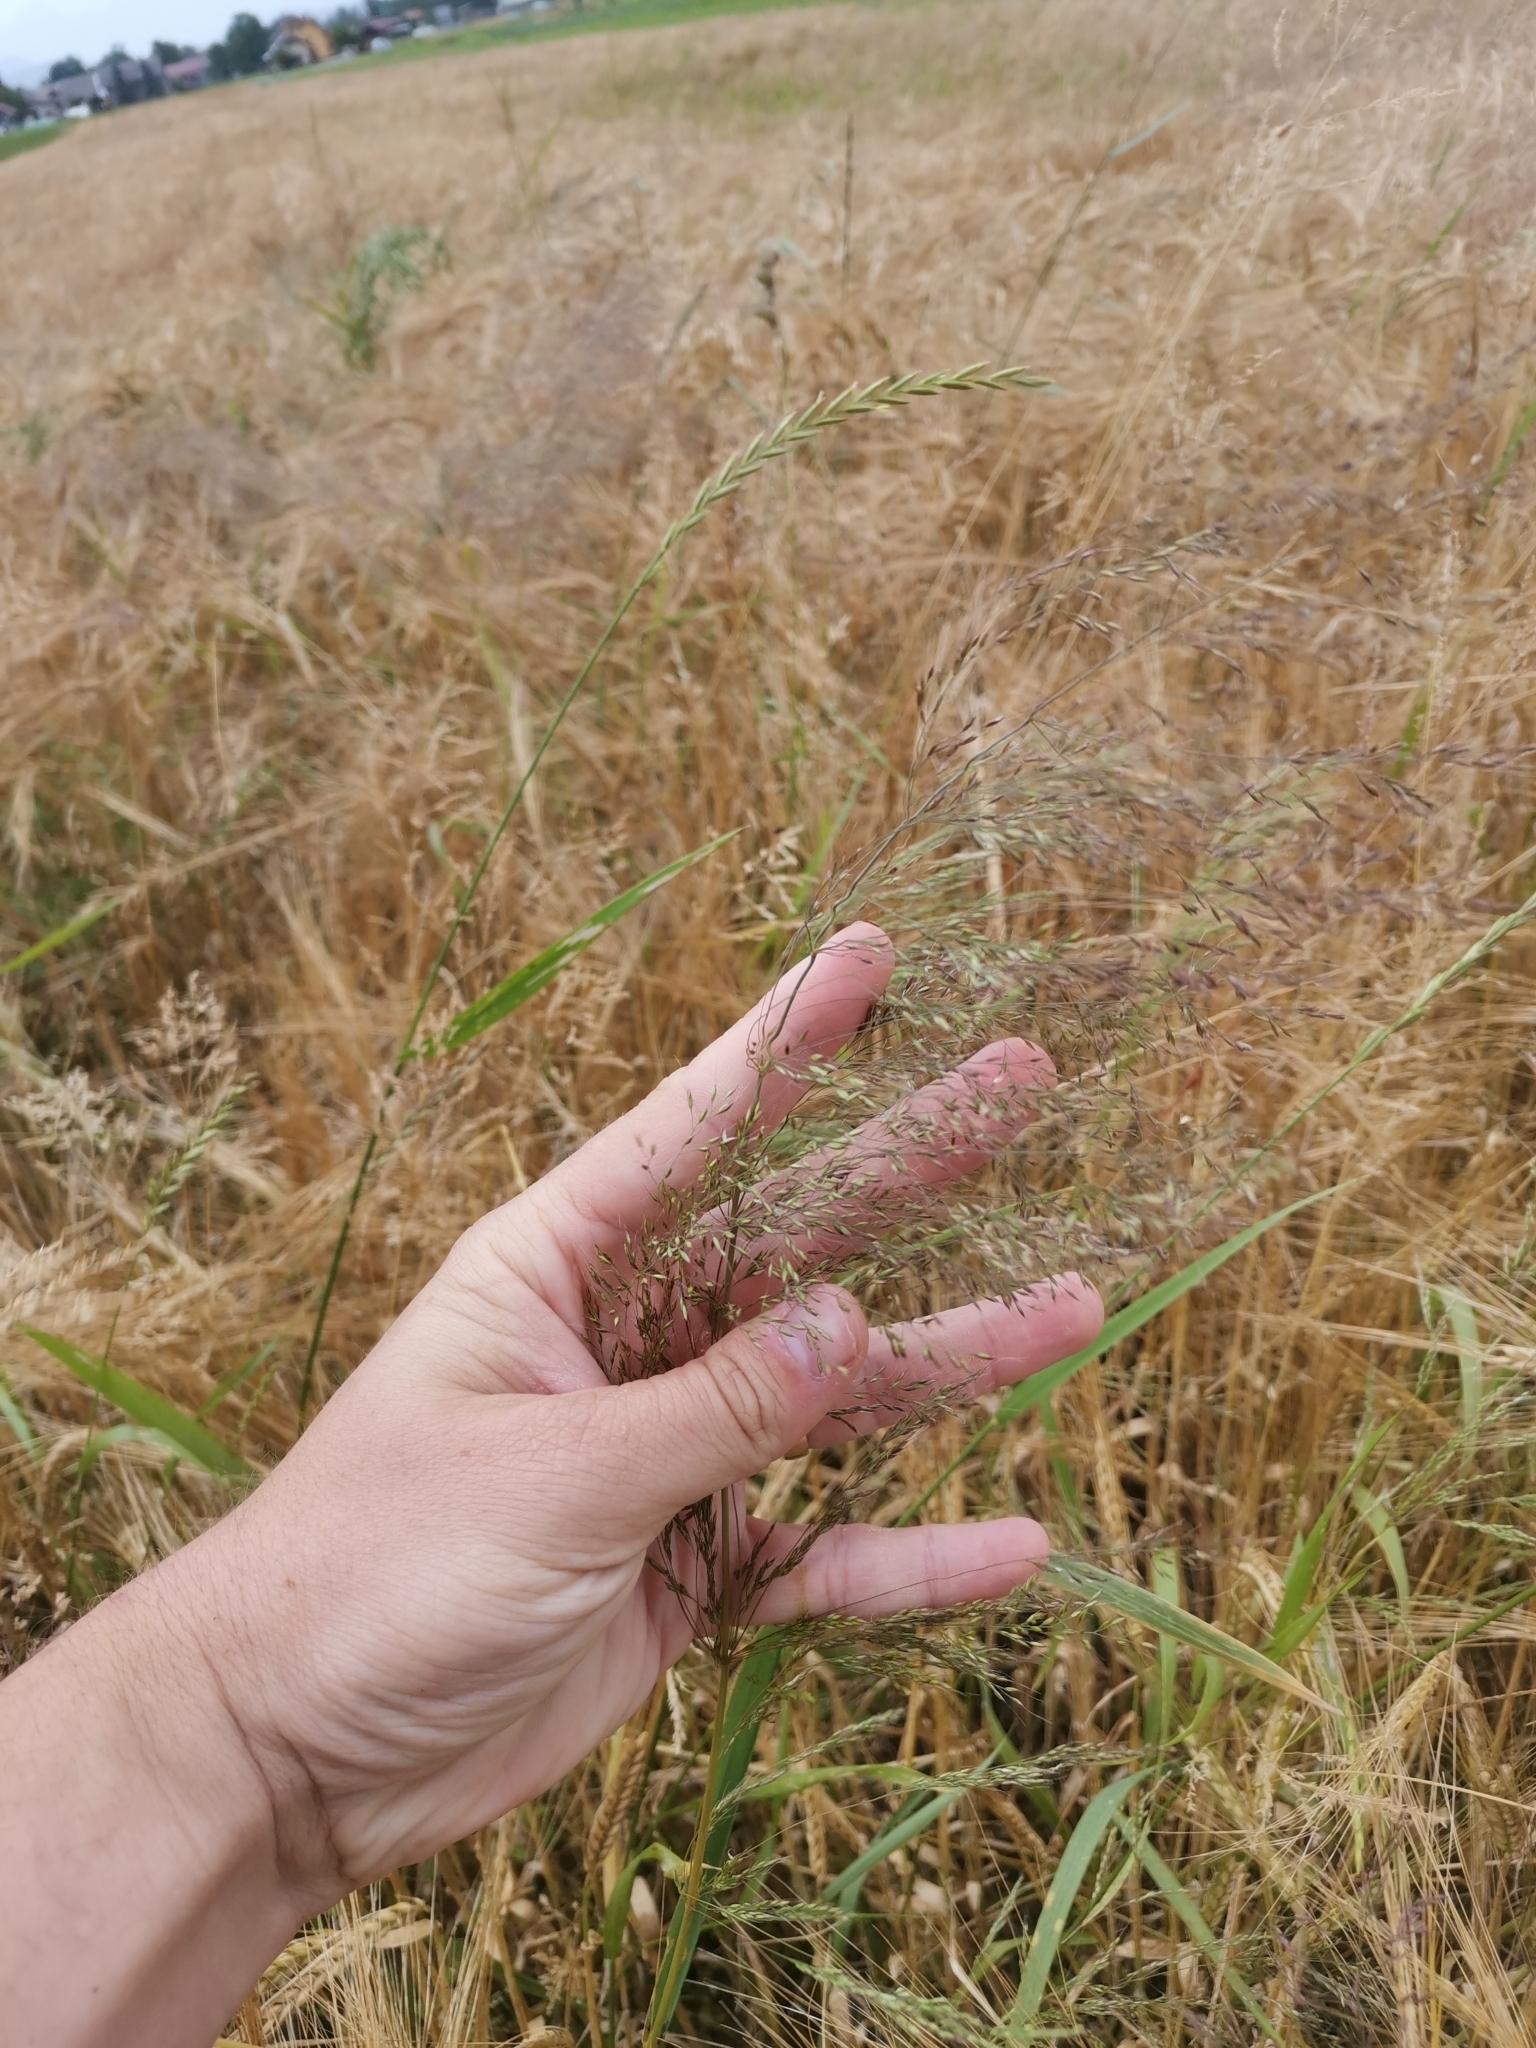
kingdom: Plantae
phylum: Tracheophyta
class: Liliopsida
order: Poales
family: Poaceae
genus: Apera
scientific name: Apera spica-venti
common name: Loose silky-bent
